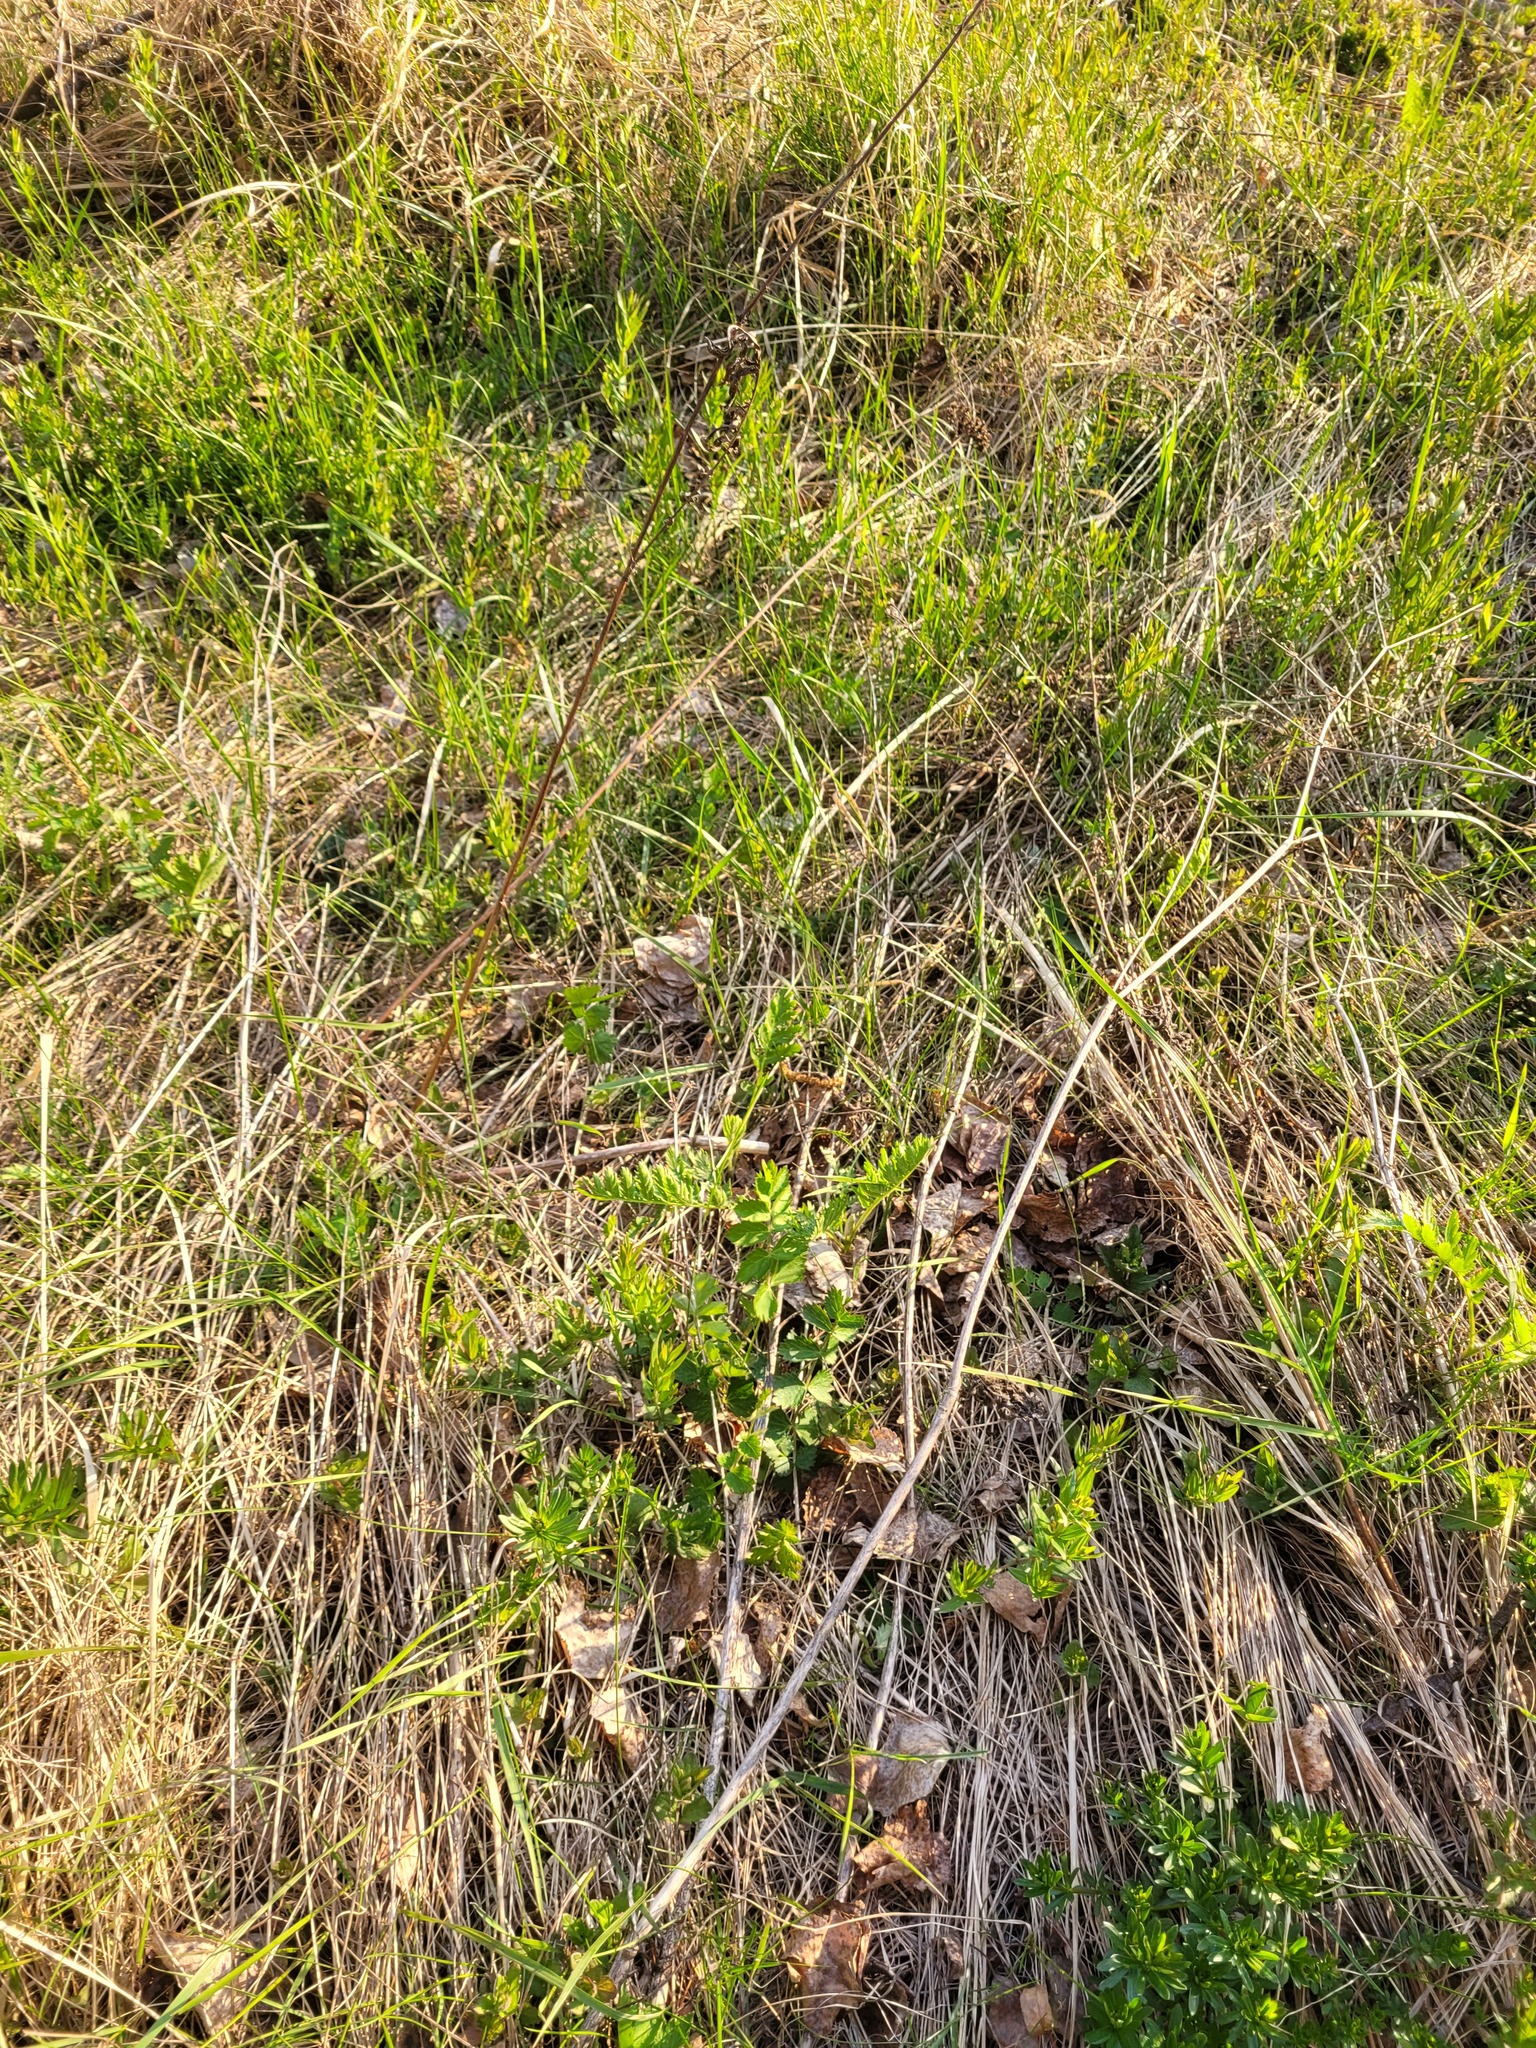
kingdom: Plantae
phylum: Tracheophyta
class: Magnoliopsida
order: Apiales
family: Apiaceae
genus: Pimpinella
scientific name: Pimpinella saxifraga
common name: Burnet-saxifrage
